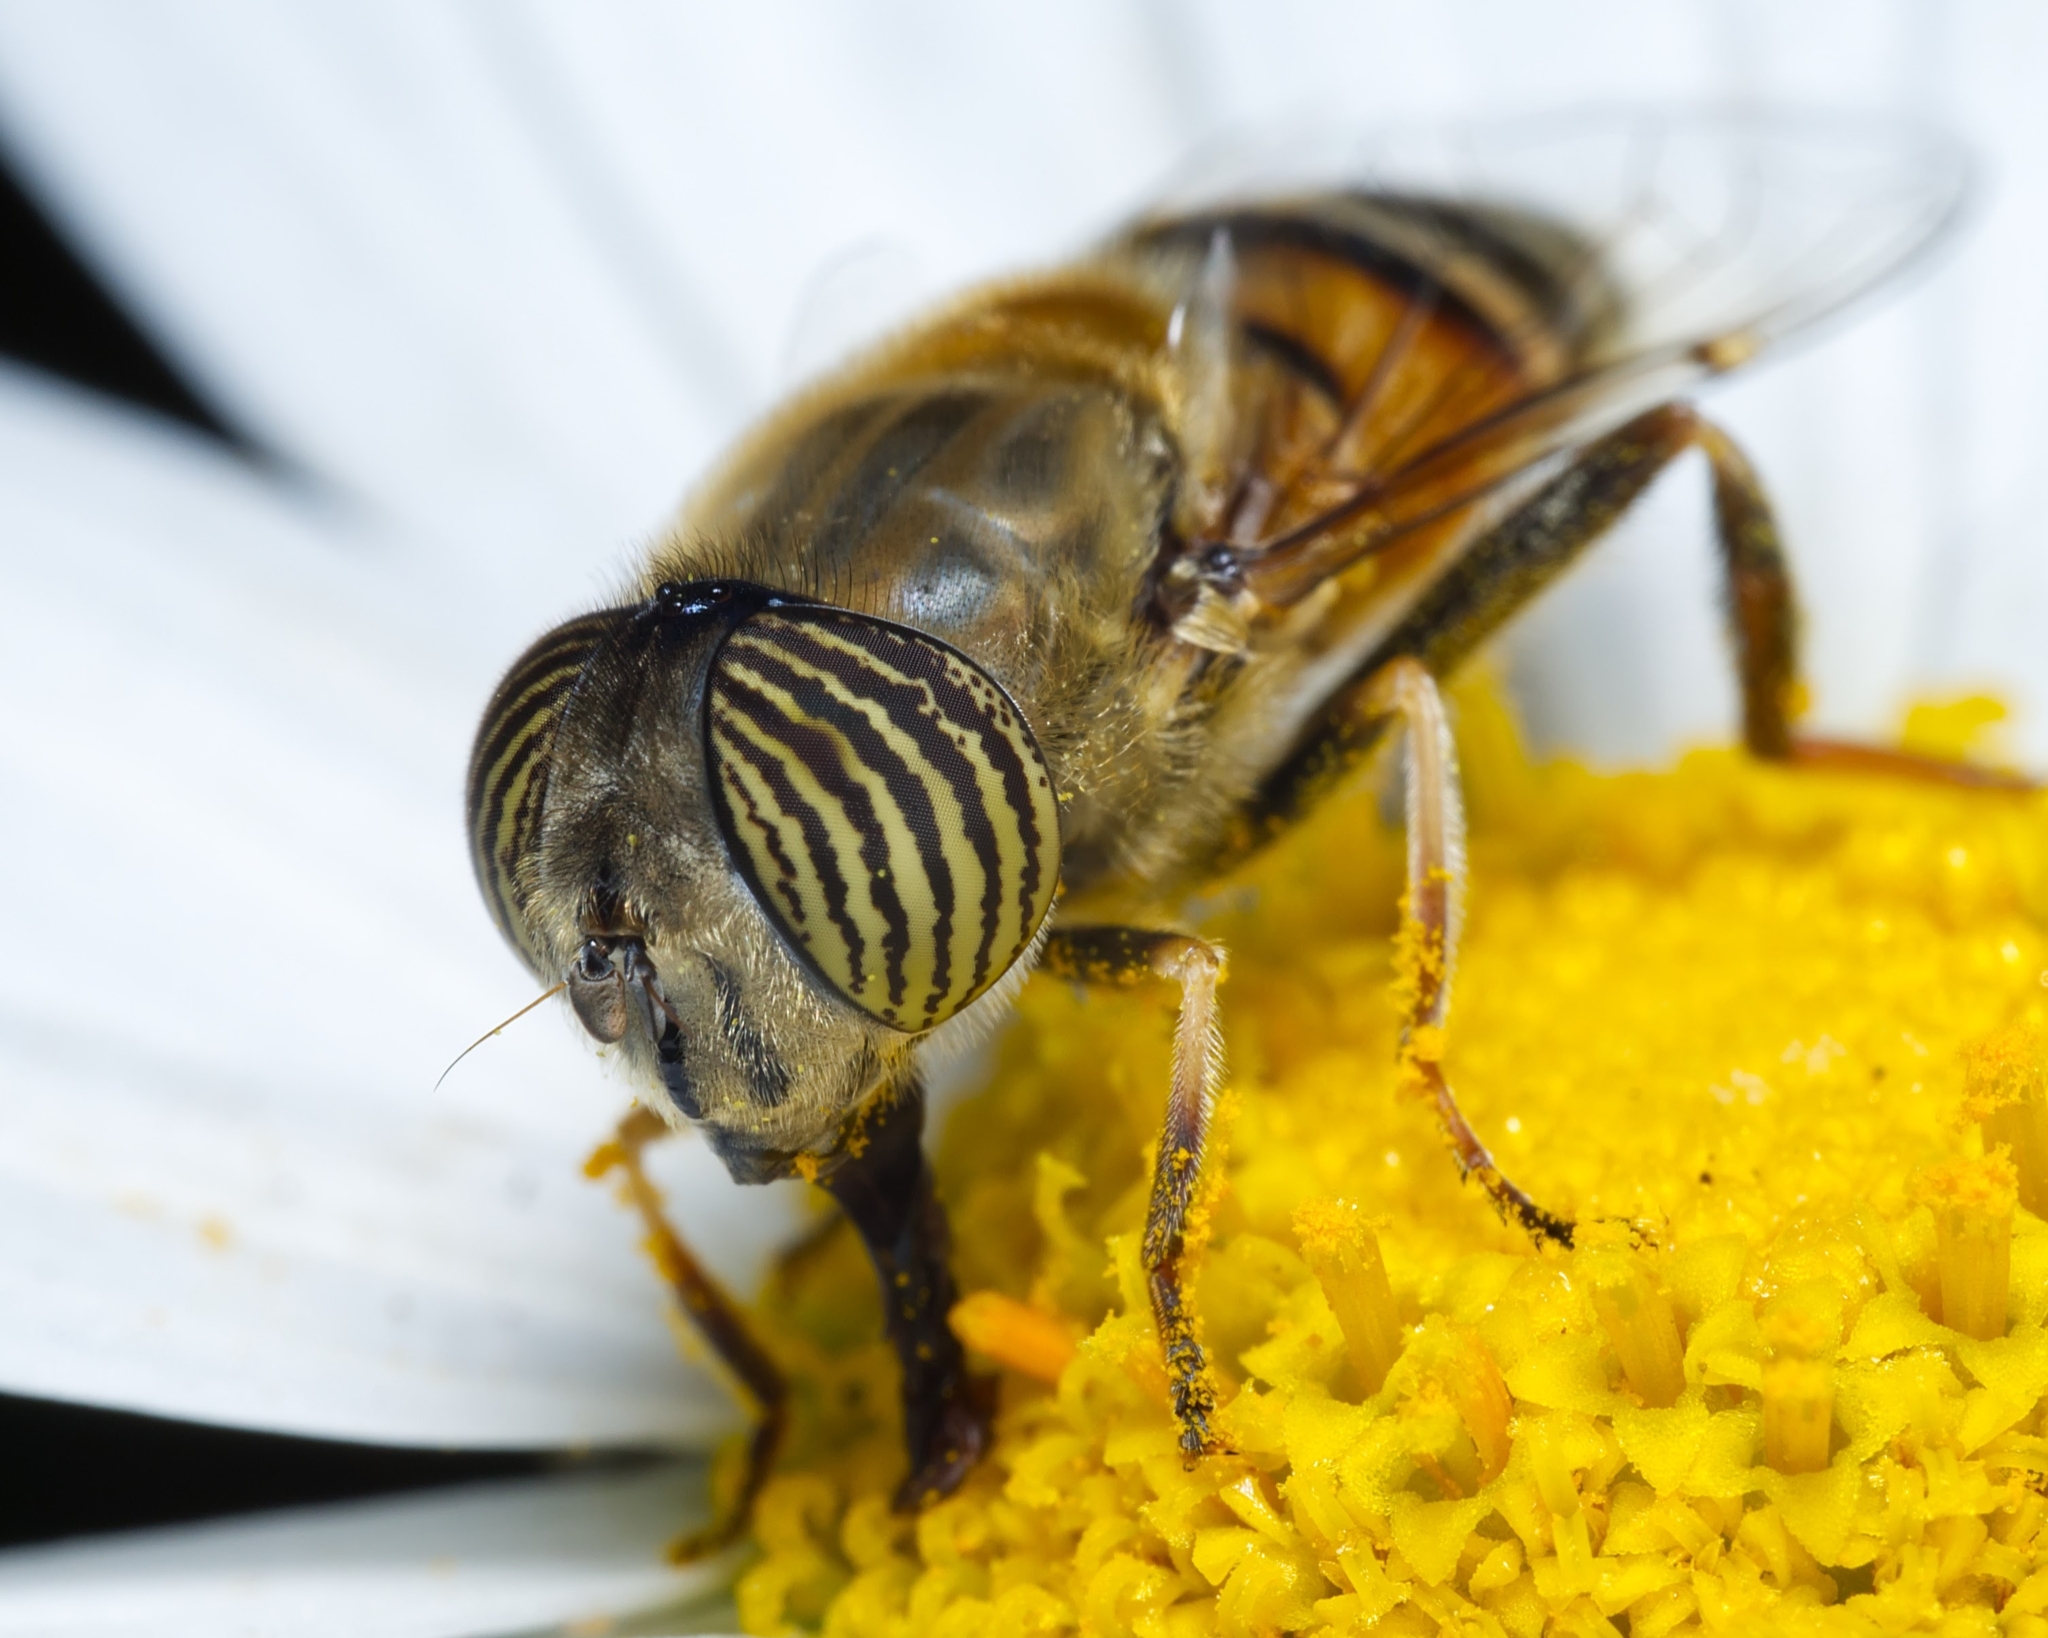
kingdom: Animalia
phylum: Arthropoda
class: Insecta
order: Diptera
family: Syrphidae
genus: Eristalinus
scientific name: Eristalinus taeniops
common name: Syrphid fly
